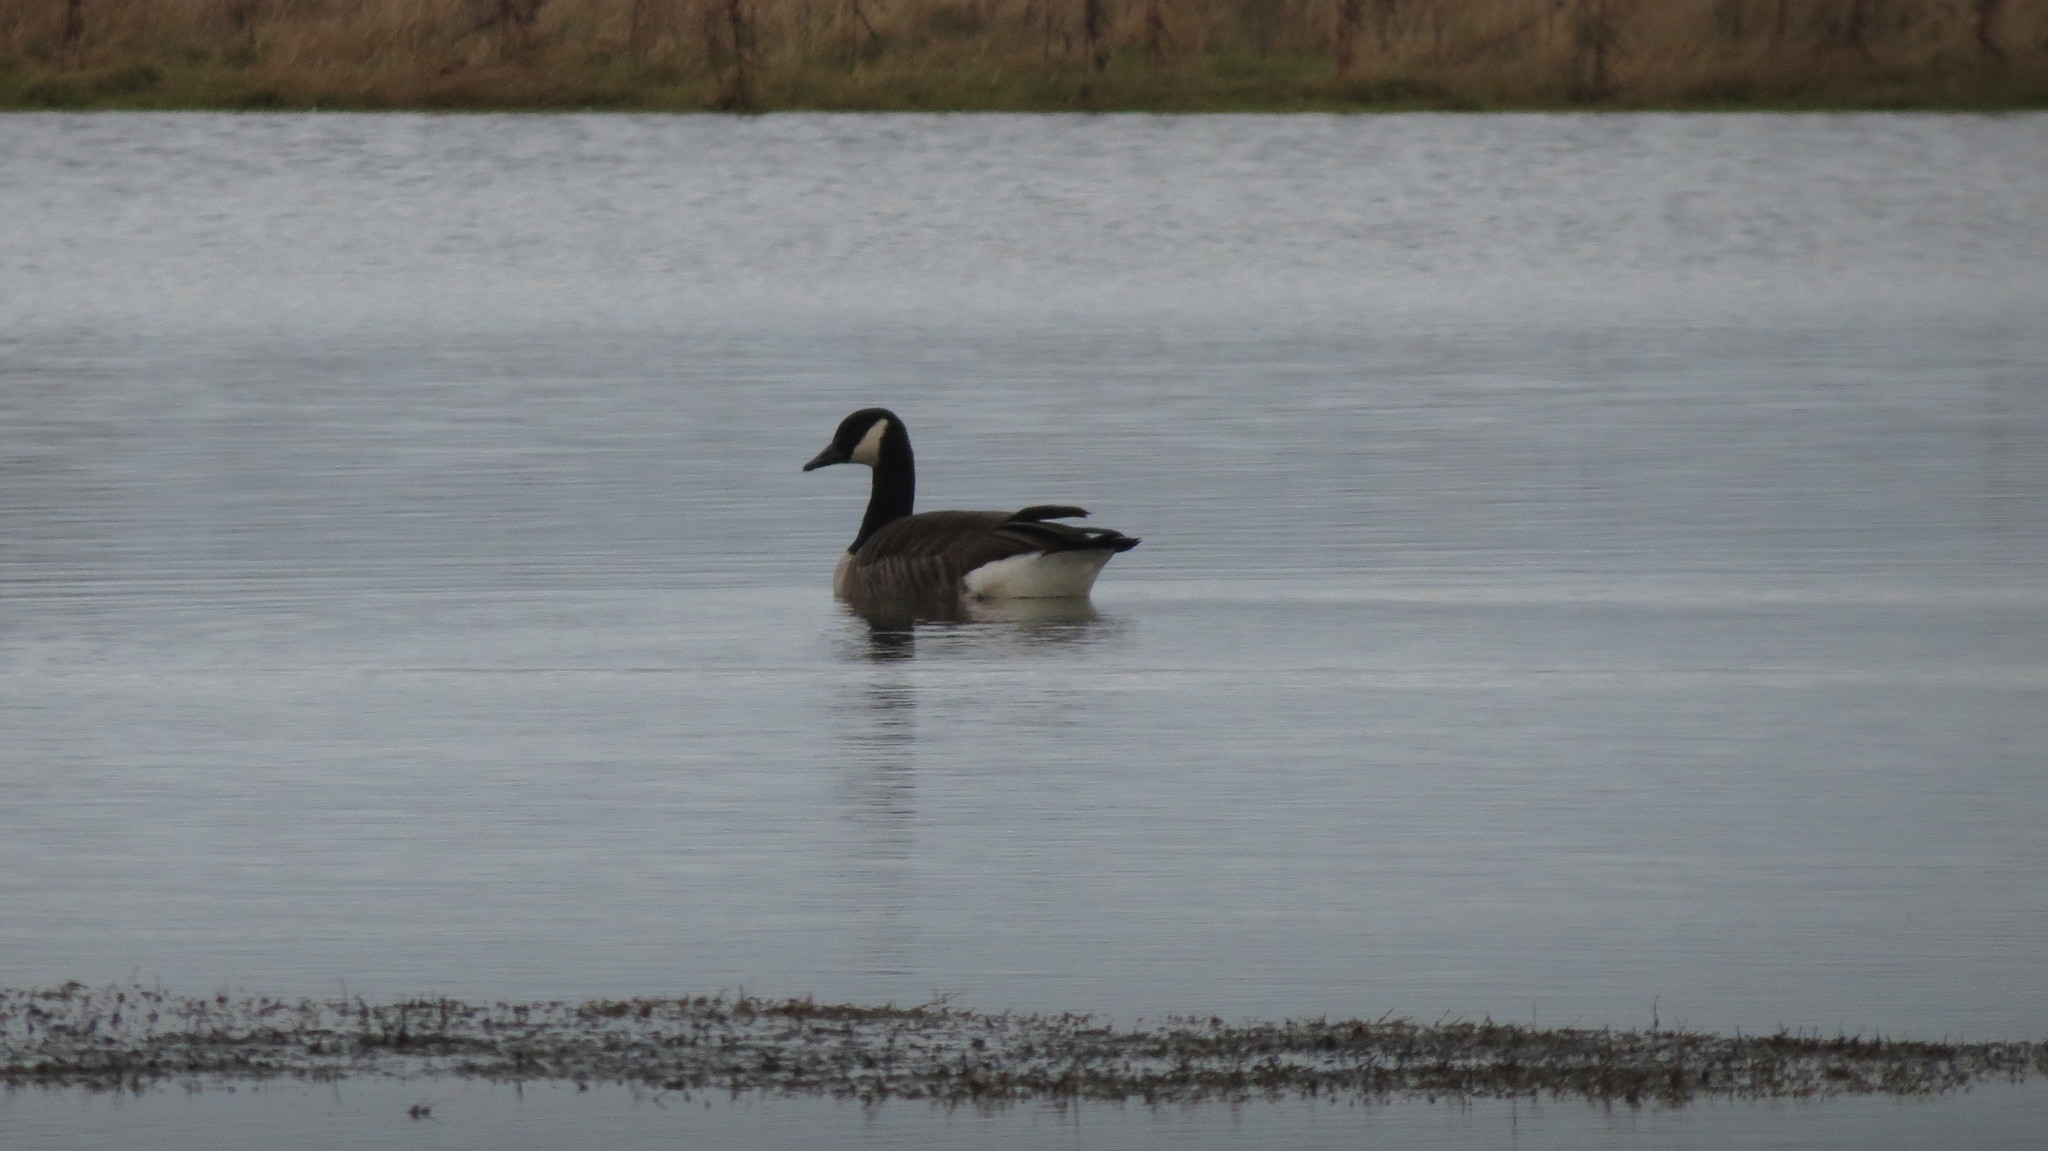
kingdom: Animalia
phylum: Chordata
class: Aves
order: Anseriformes
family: Anatidae
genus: Branta
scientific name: Branta canadensis
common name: Canada goose
